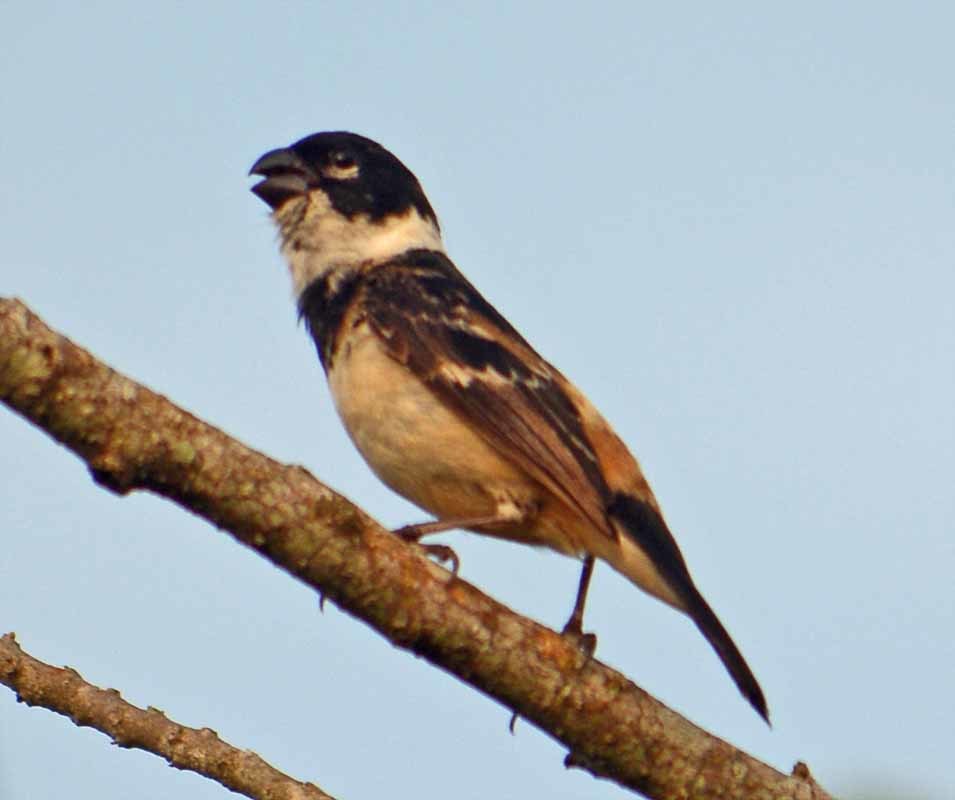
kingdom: Animalia
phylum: Chordata
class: Aves
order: Passeriformes
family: Thraupidae
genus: Sporophila
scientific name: Sporophila morelleti
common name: Morelet's seedeater
